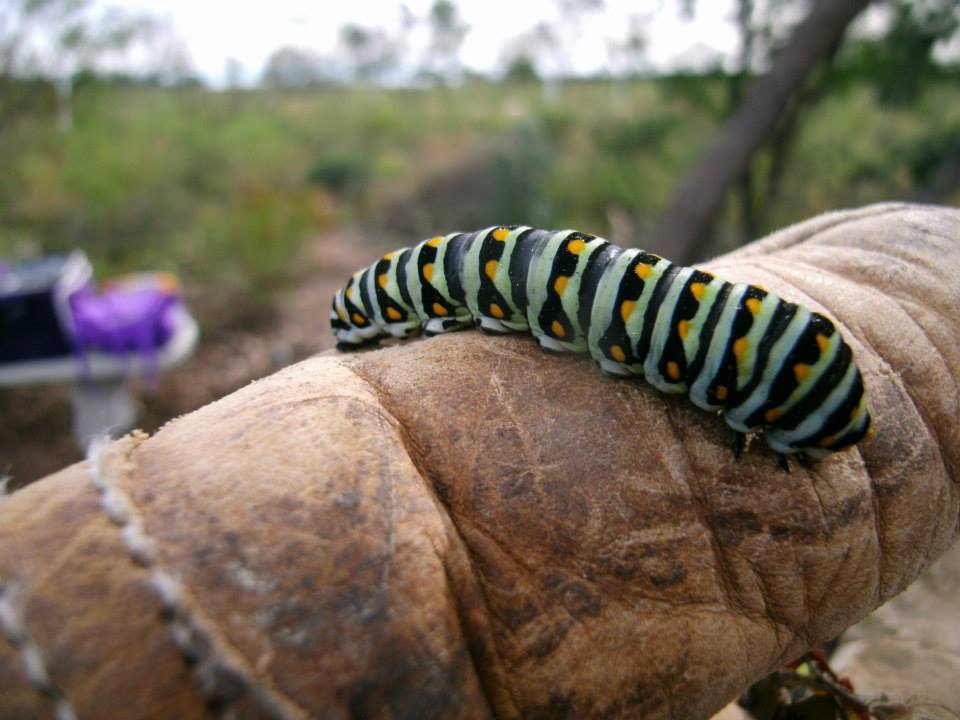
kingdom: Animalia
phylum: Arthropoda
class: Insecta
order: Lepidoptera
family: Papilionidae
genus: Papilio
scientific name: Papilio polyxenes
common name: Black swallowtail
